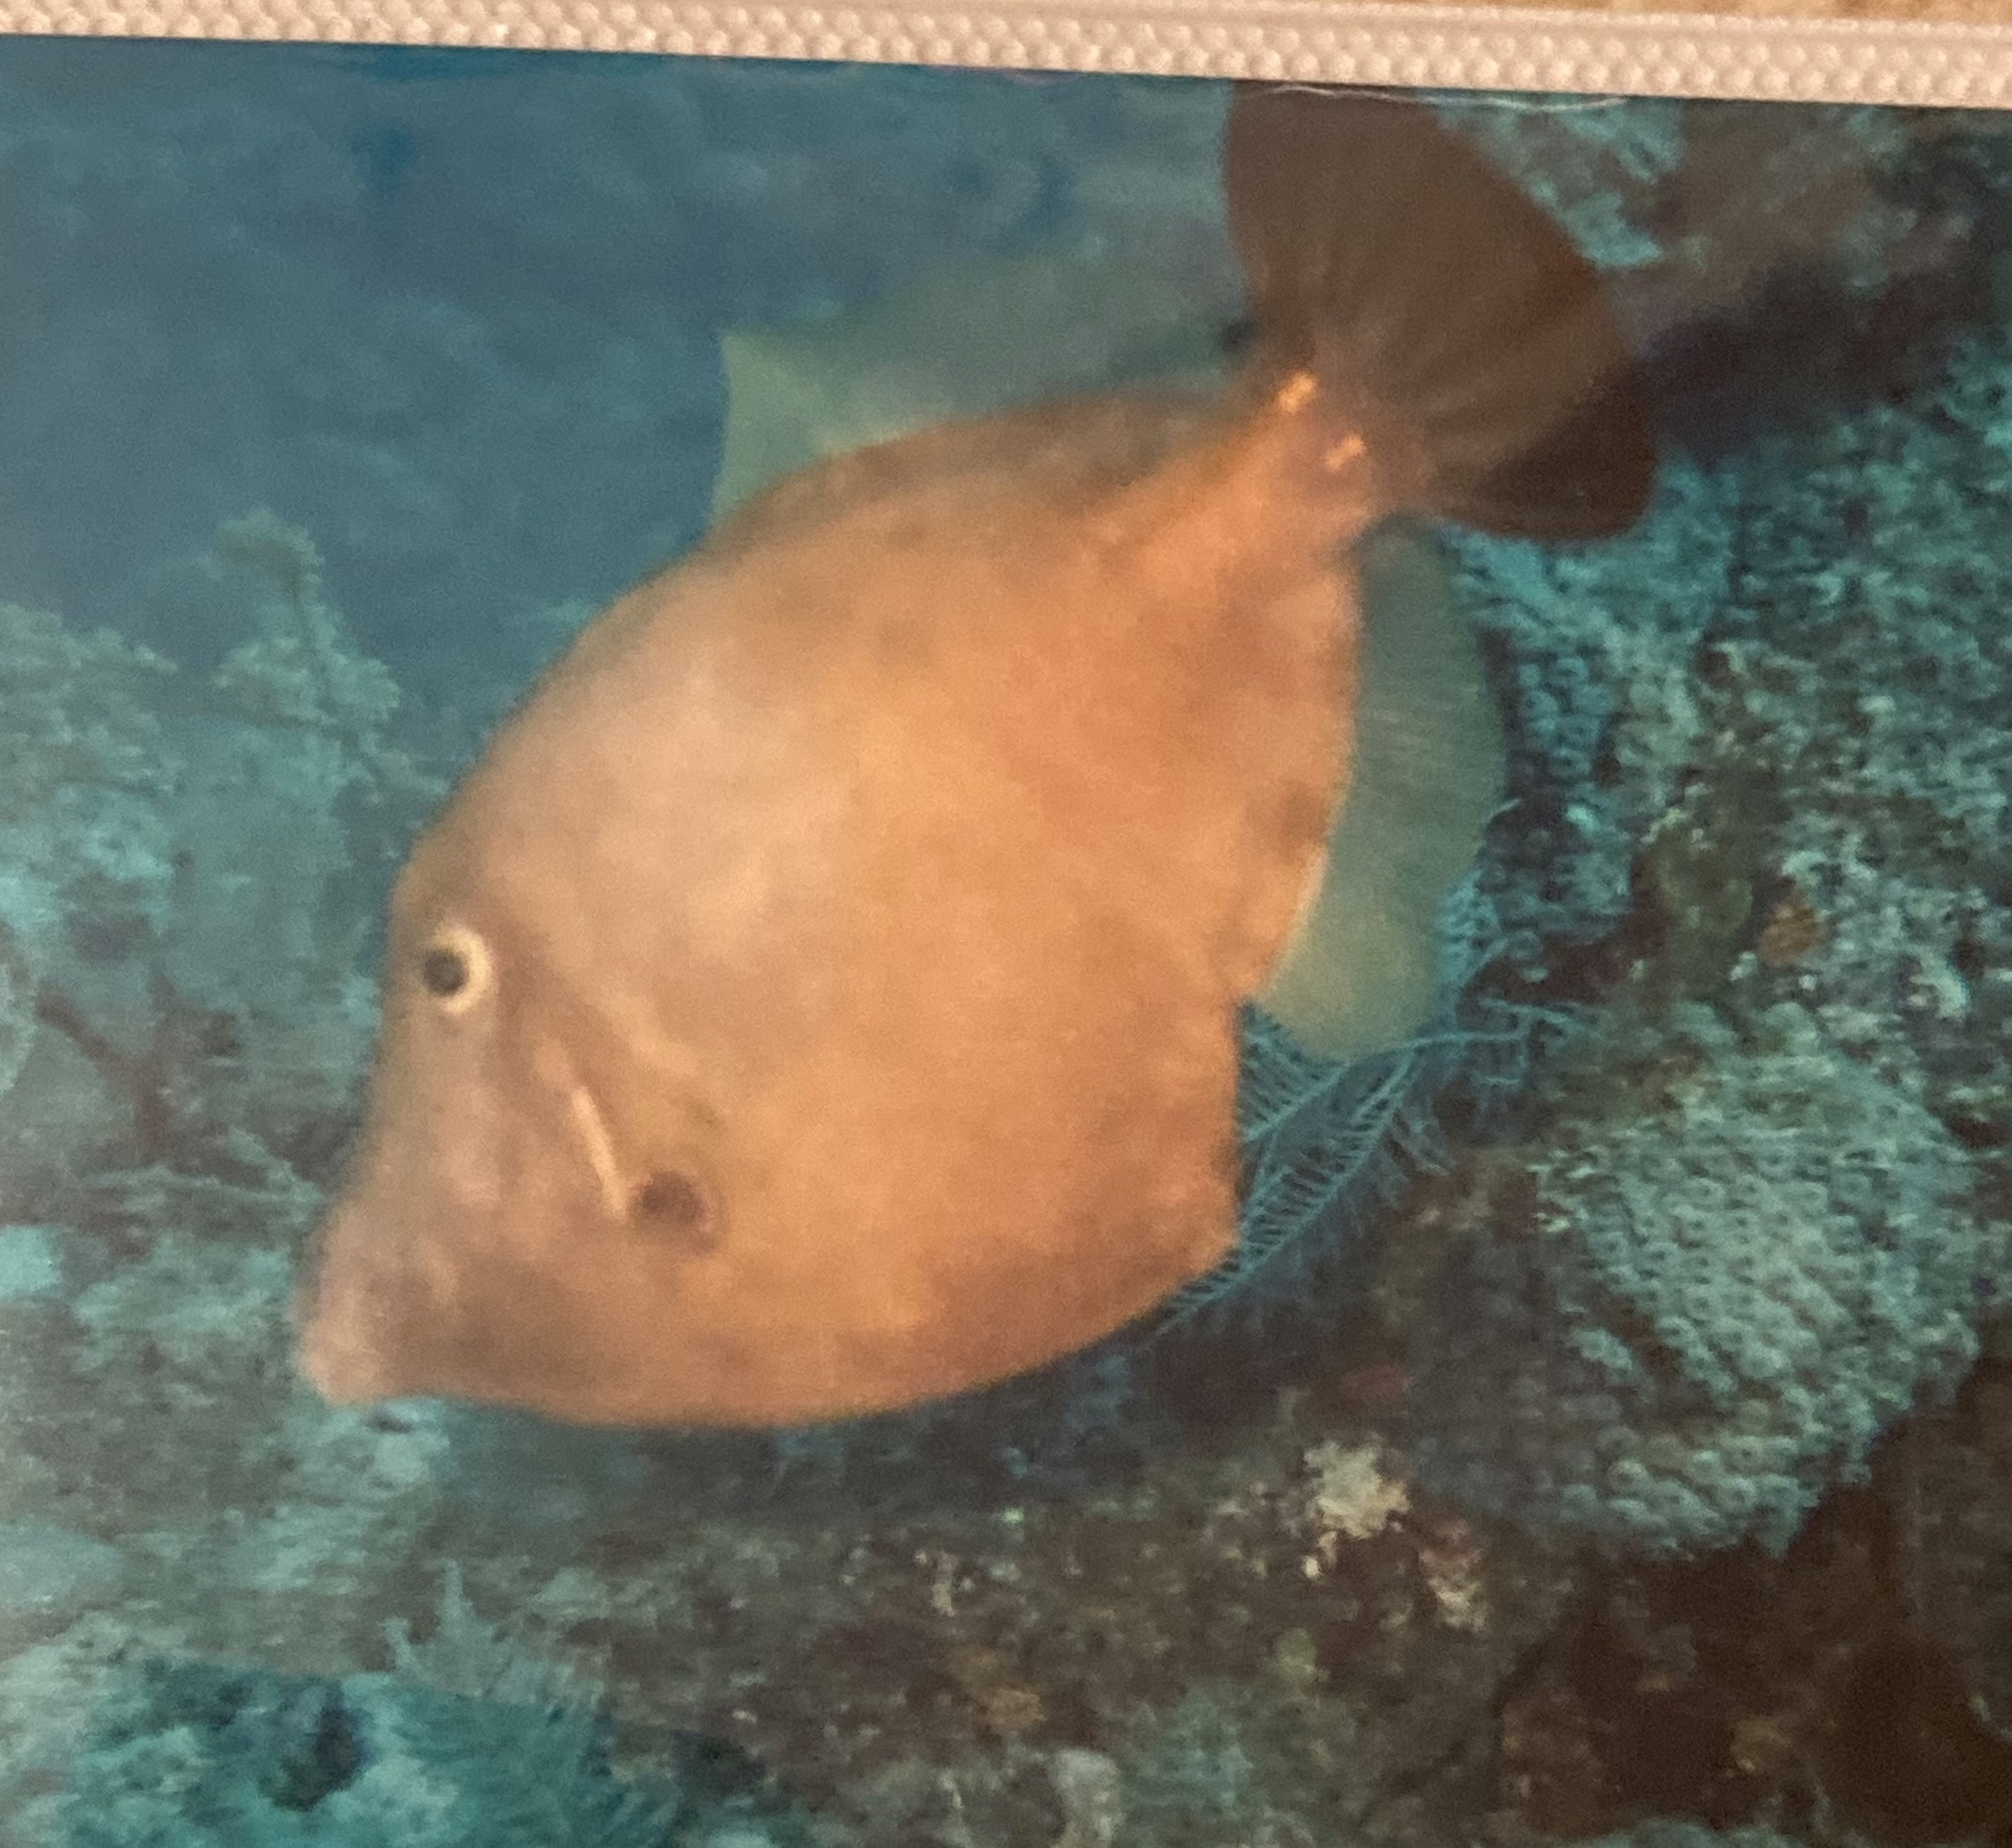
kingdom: Animalia
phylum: Chordata
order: Tetraodontiformes
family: Monacanthidae
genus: Cantherhines
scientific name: Cantherhines macrocerus
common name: Whitespotted filefish
